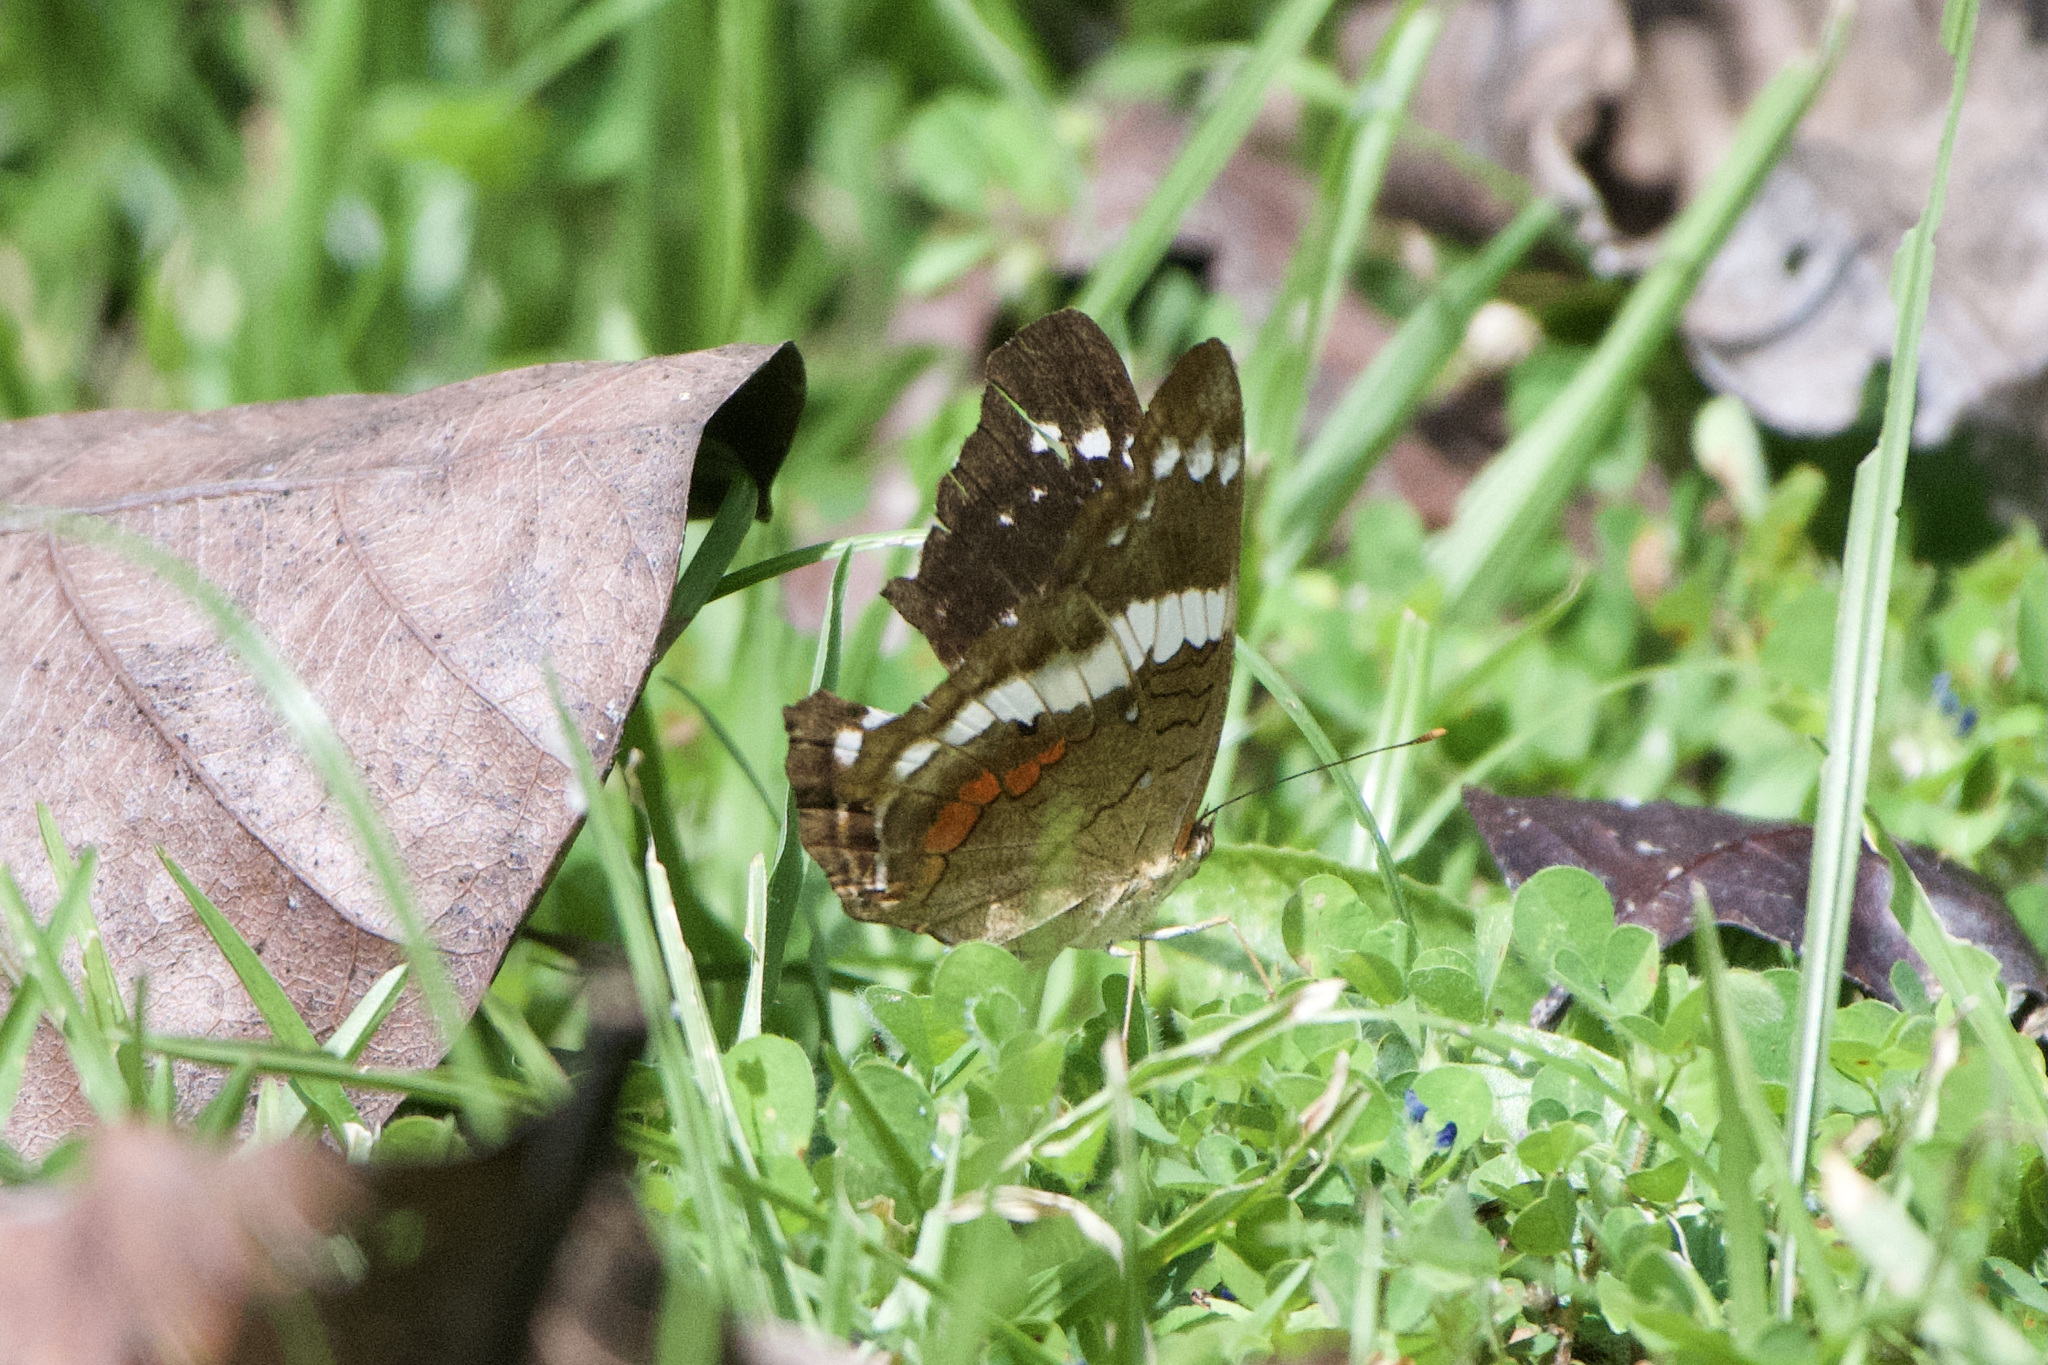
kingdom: Animalia
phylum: Arthropoda
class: Insecta
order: Lepidoptera
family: Nymphalidae
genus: Anartia
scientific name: Anartia fatima
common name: Banded peacock
